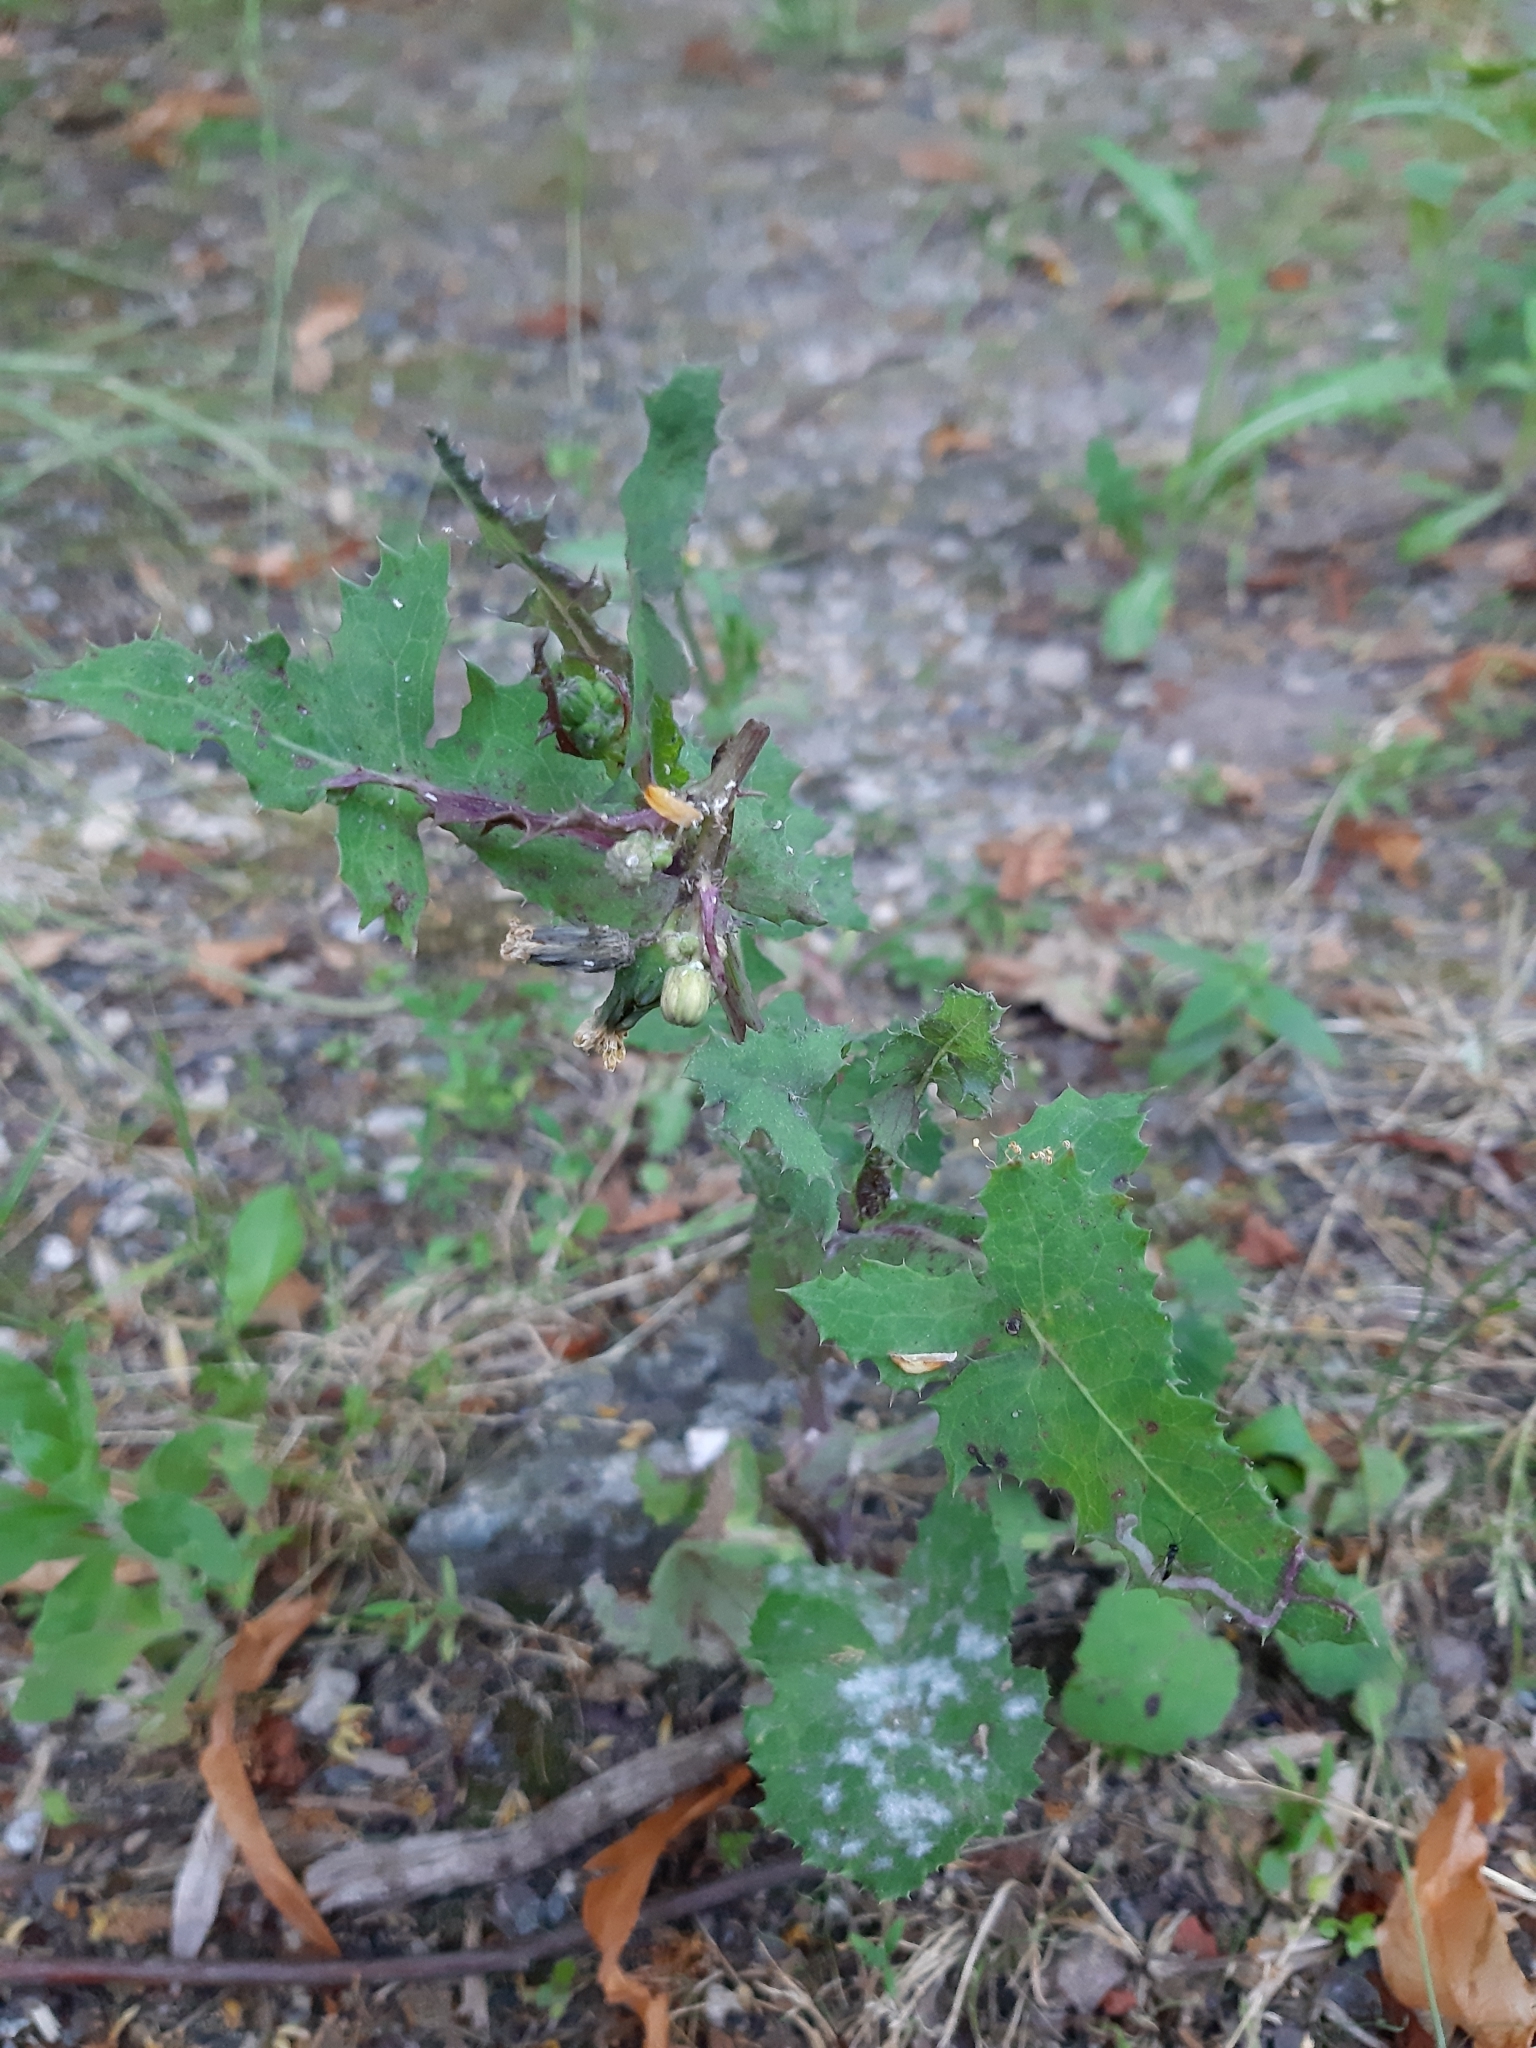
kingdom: Plantae
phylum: Tracheophyta
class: Magnoliopsida
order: Asterales
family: Asteraceae
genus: Sonchus
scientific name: Sonchus oleraceus
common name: Common sowthistle
